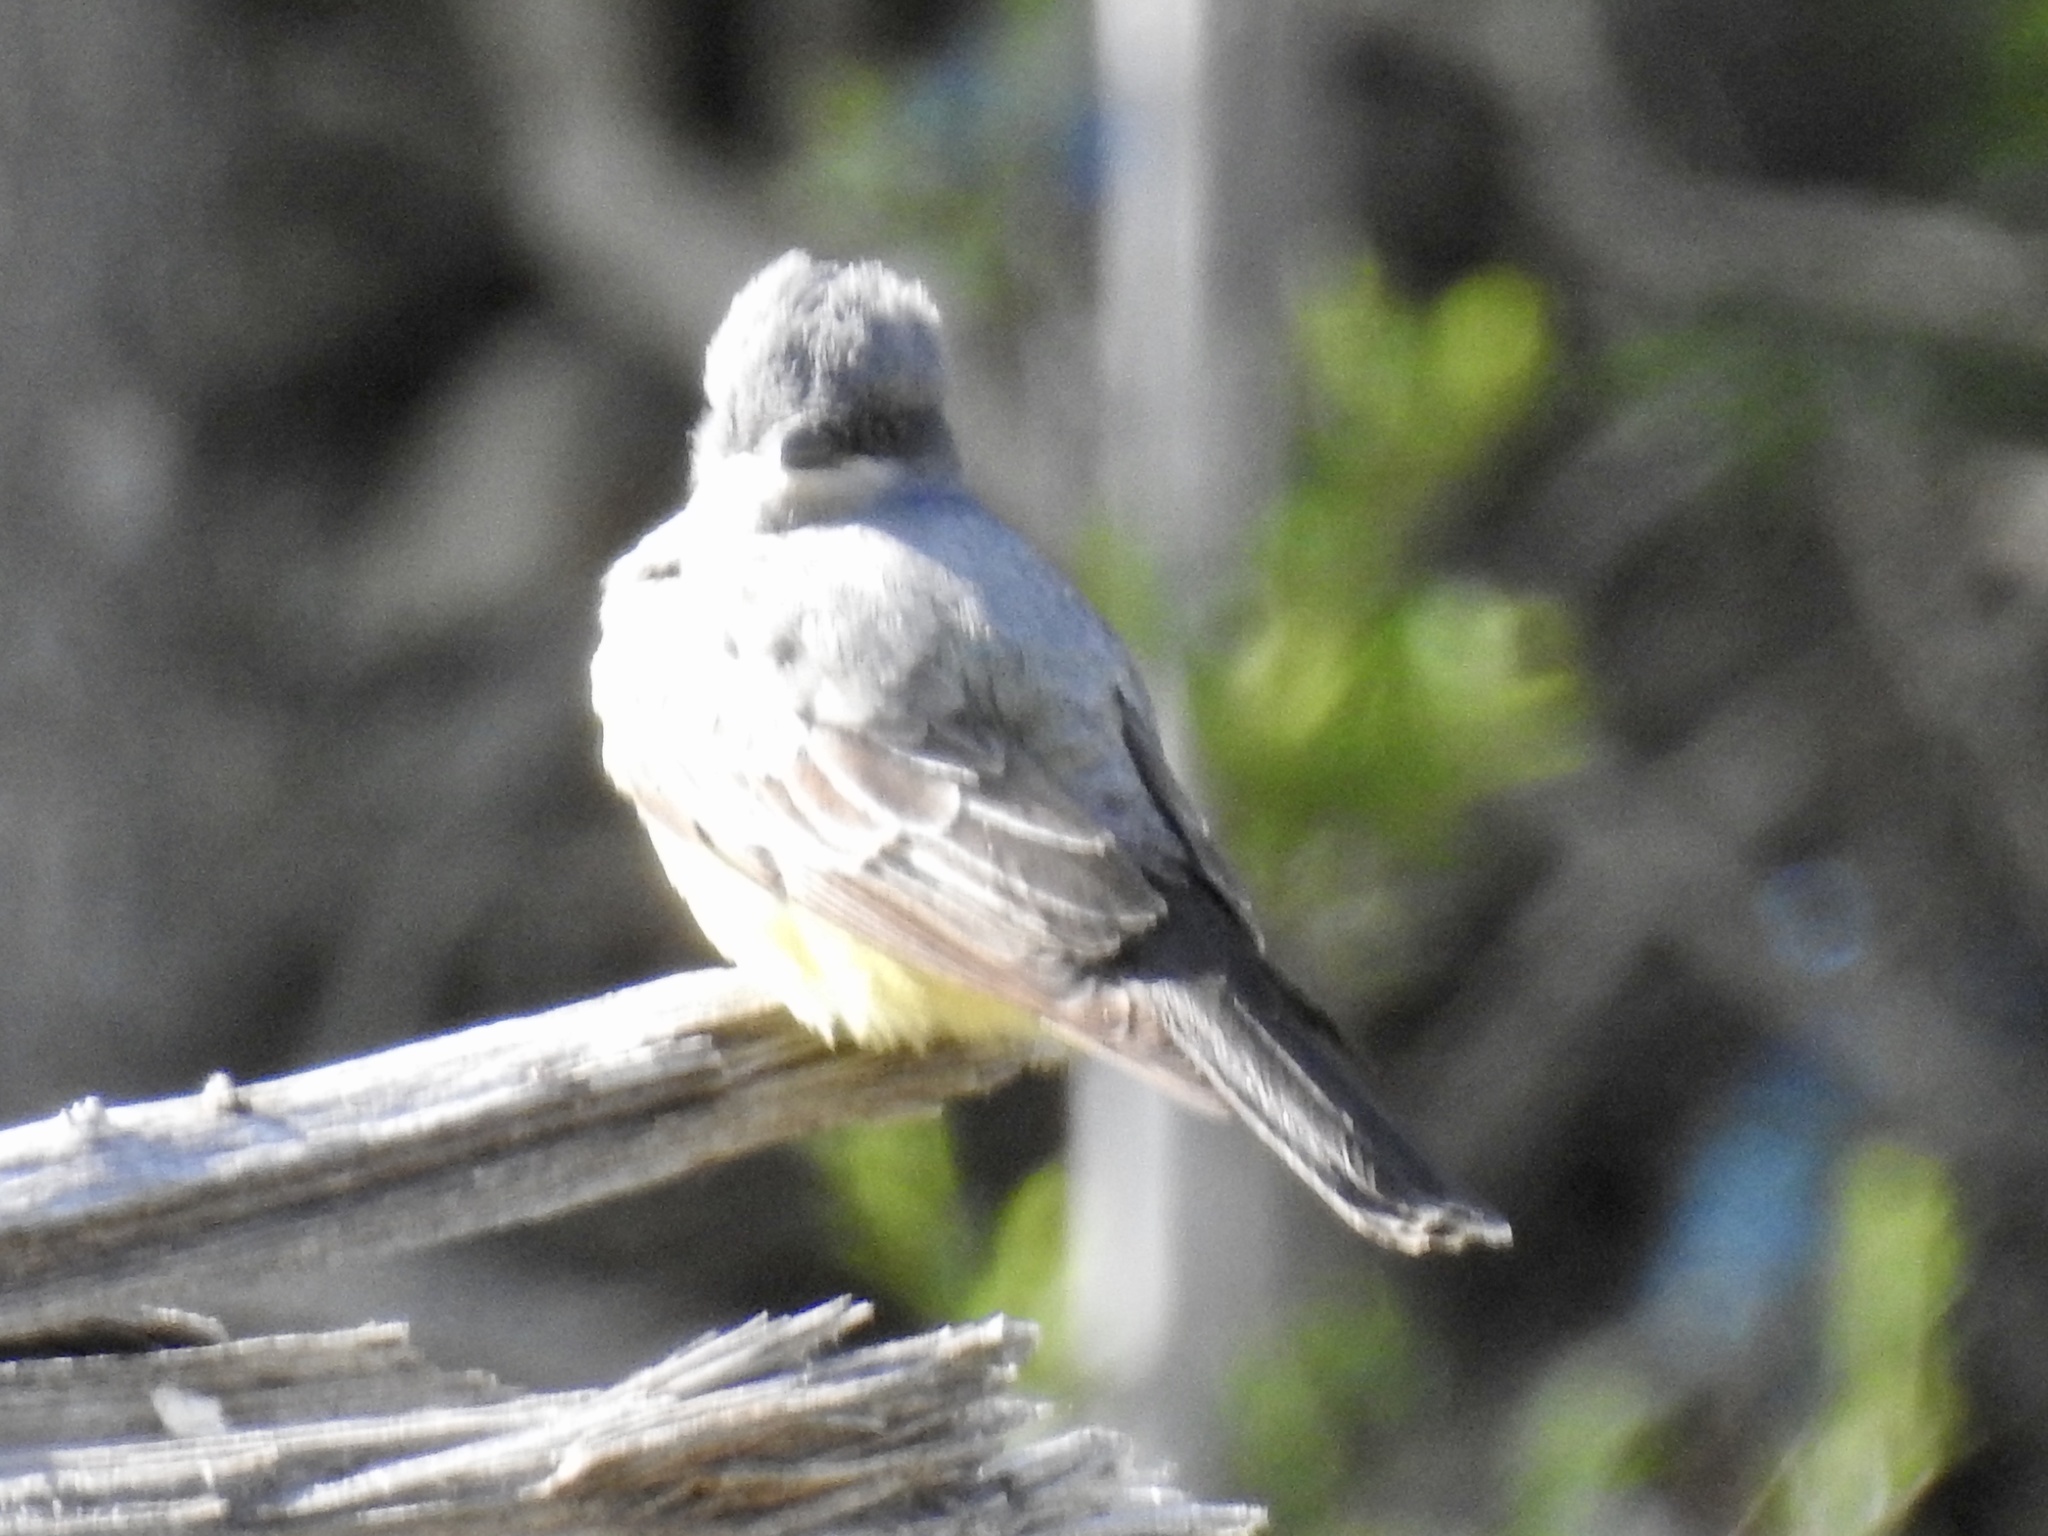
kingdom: Animalia
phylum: Chordata
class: Aves
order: Passeriformes
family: Tyrannidae
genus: Tyrannus
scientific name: Tyrannus verticalis
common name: Western kingbird
